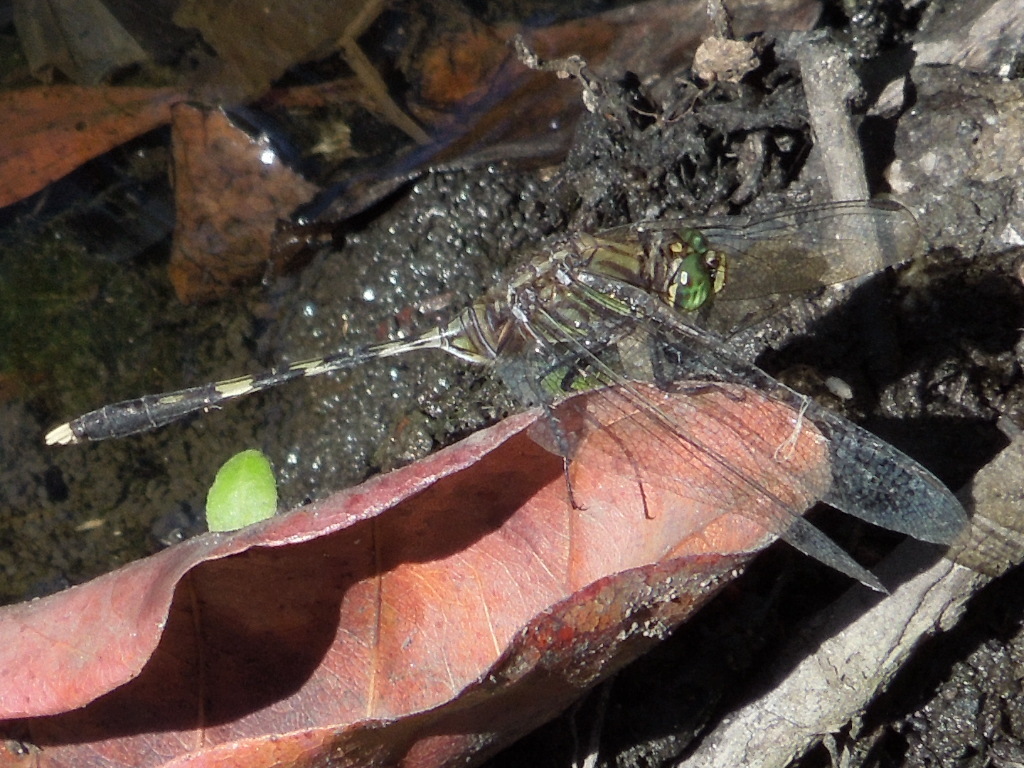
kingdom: Animalia
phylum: Arthropoda
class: Insecta
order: Odonata
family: Libellulidae
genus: Orthetrum
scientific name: Orthetrum serapia
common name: Green skimmer
